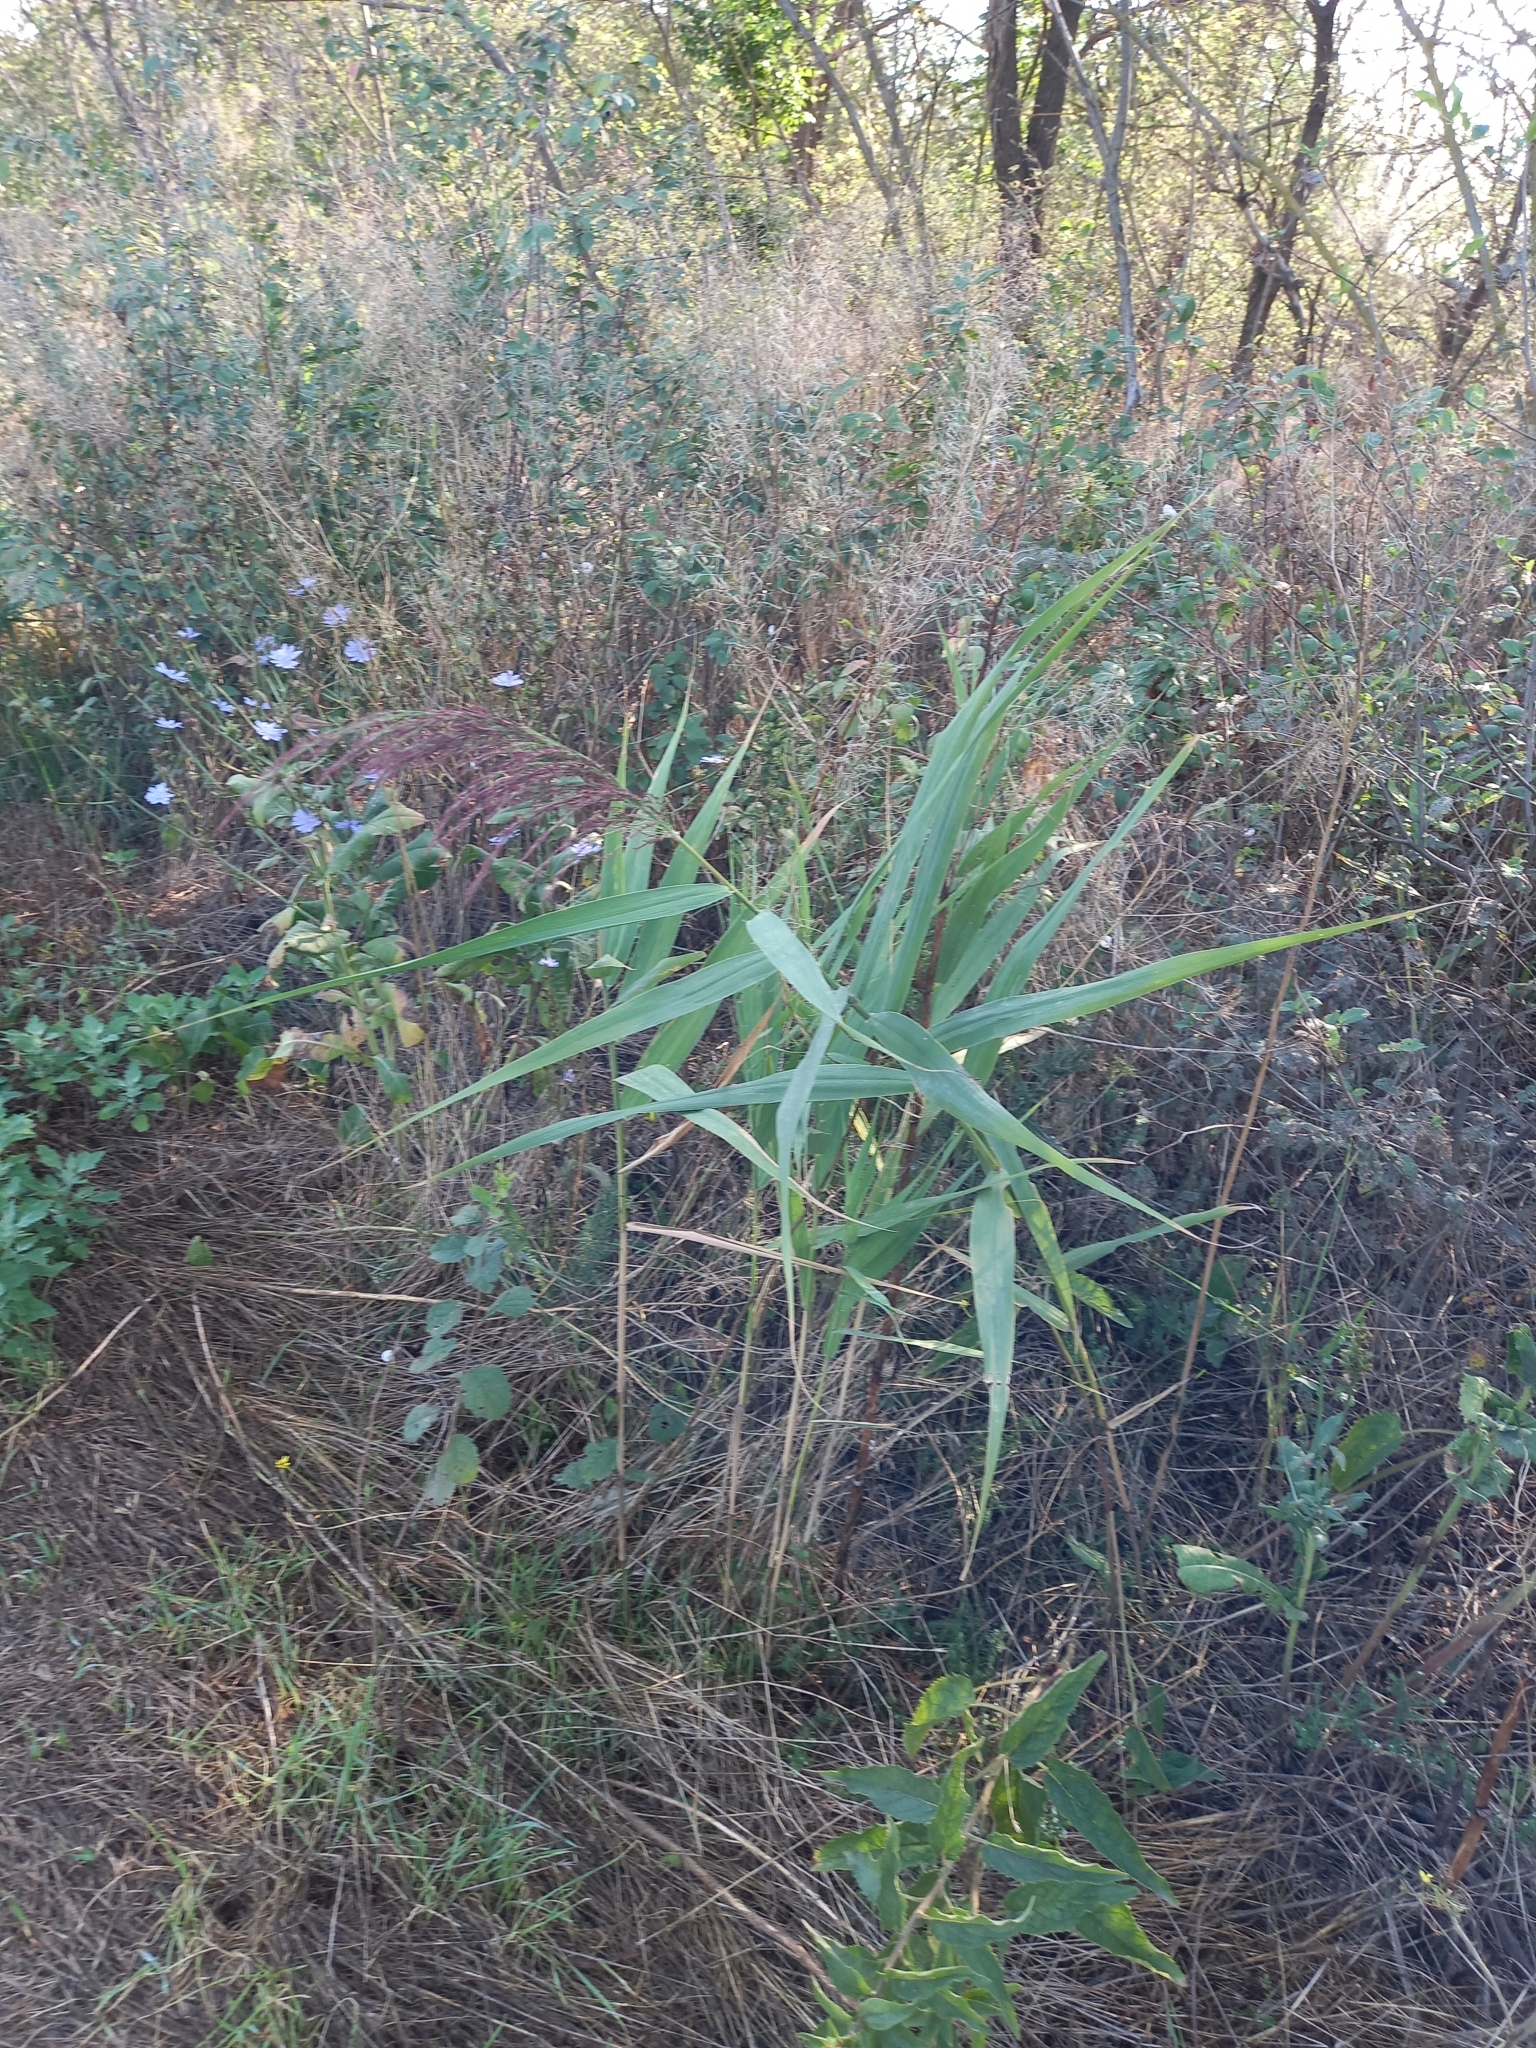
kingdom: Plantae
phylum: Tracheophyta
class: Liliopsida
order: Poales
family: Poaceae
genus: Phragmites
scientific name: Phragmites australis
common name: Common reed
